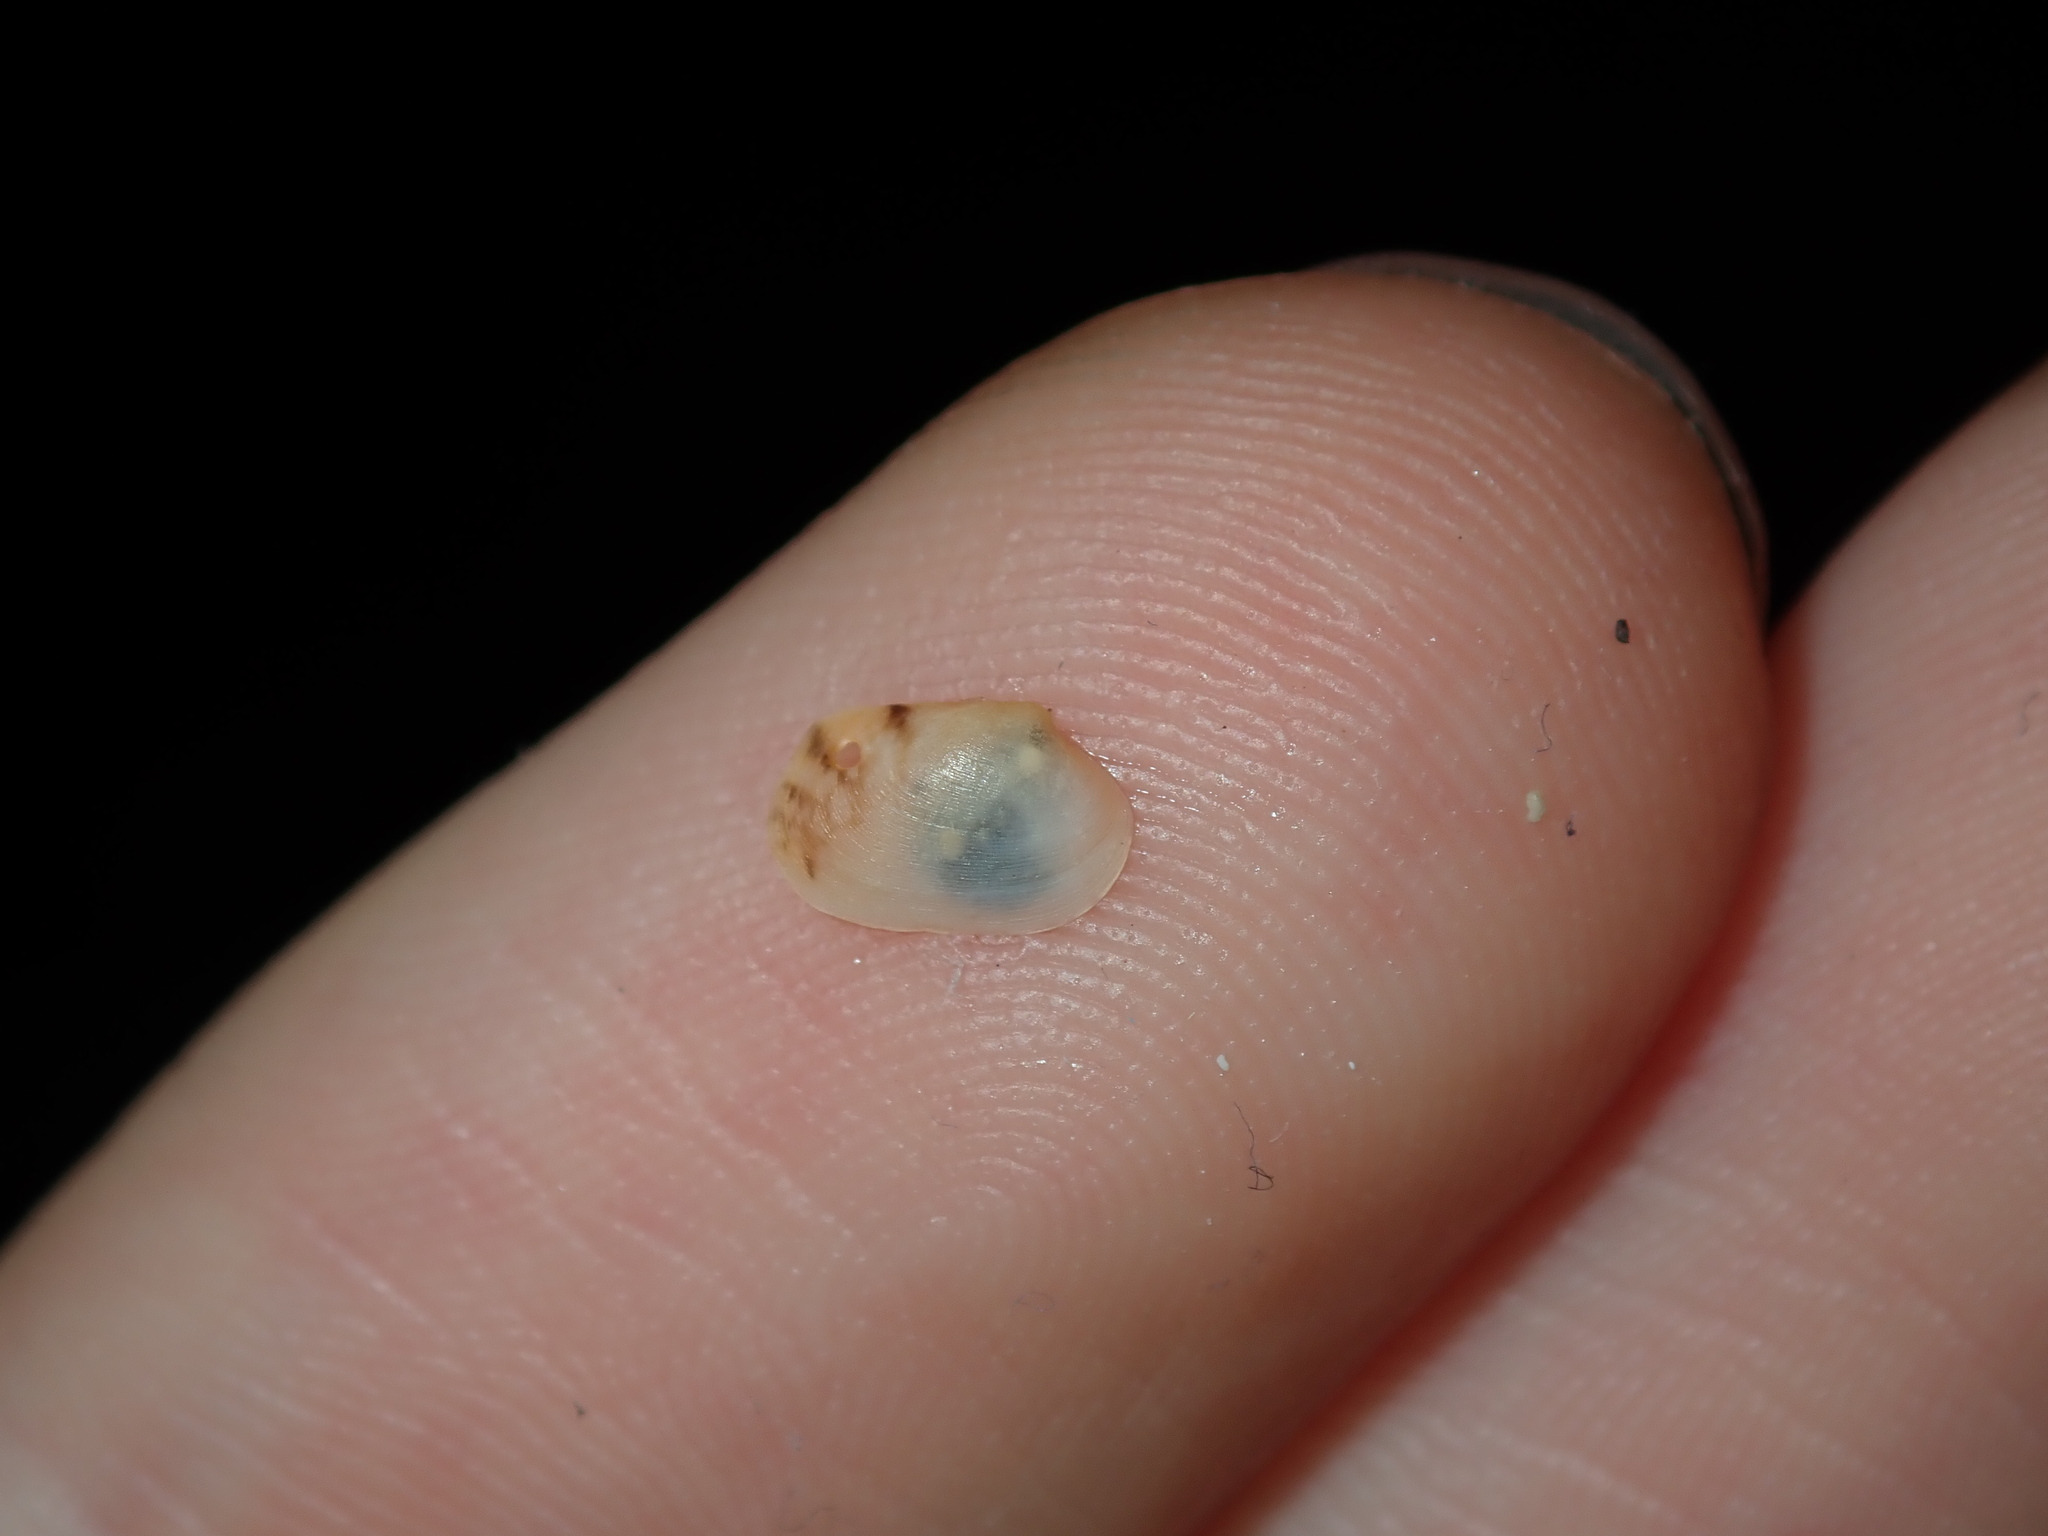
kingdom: Animalia
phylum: Mollusca
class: Bivalvia
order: Venerida
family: Veneridae
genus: Venerupis
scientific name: Venerupis anomala
